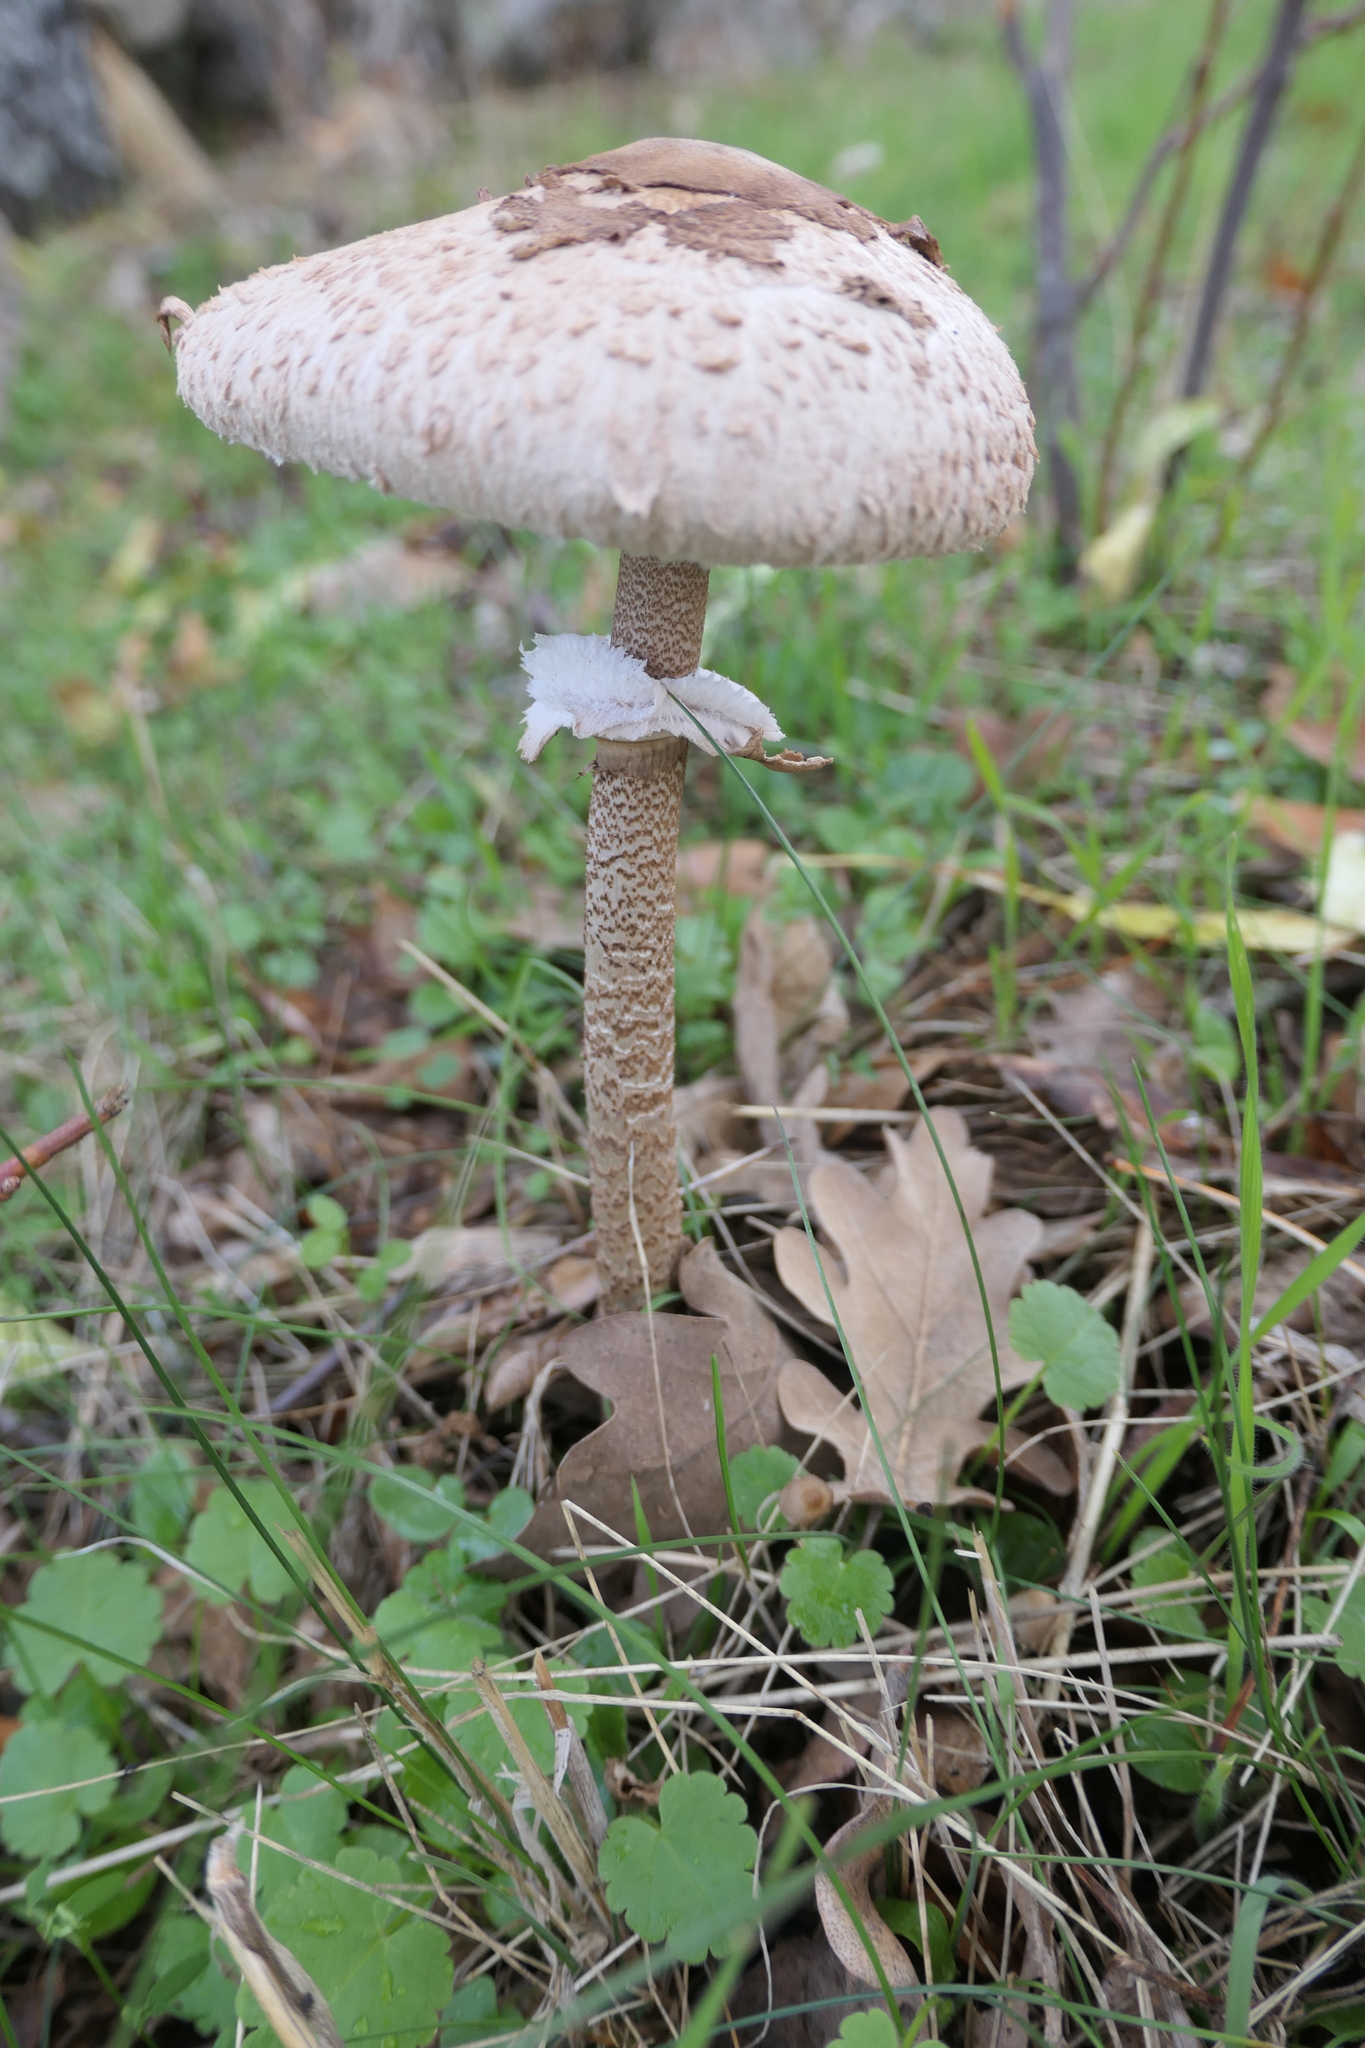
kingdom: Fungi
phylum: Basidiomycota
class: Agaricomycetes
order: Agaricales
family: Agaricaceae
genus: Macrolepiota
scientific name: Macrolepiota procera
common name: Parasol
